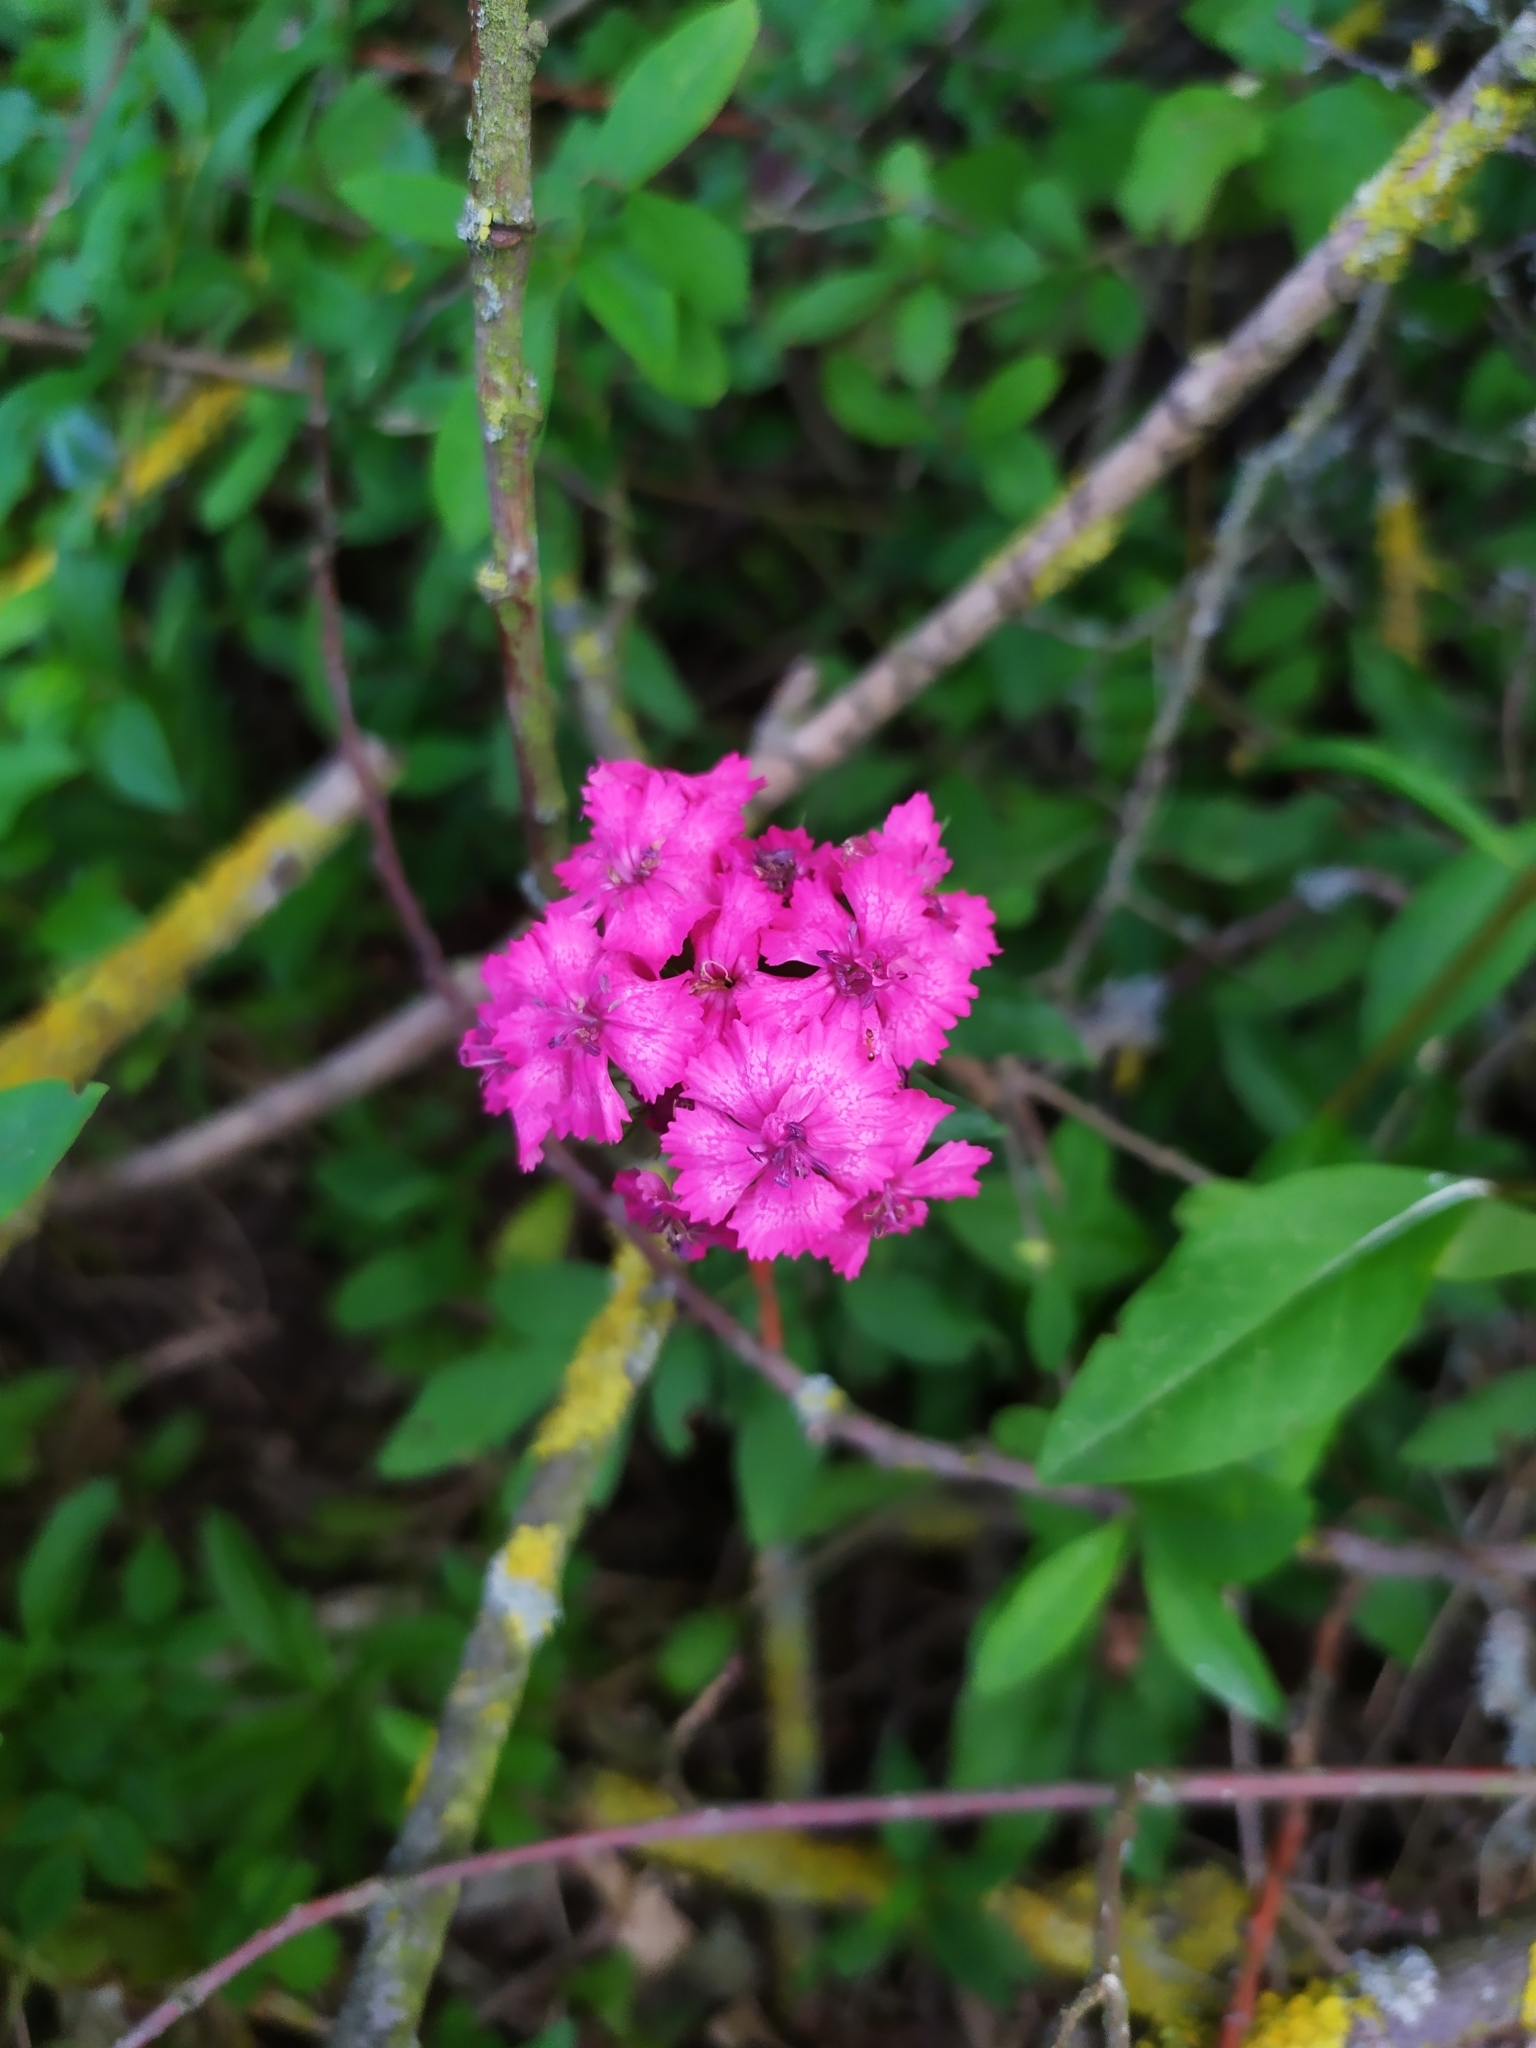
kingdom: Plantae
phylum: Tracheophyta
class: Magnoliopsida
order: Caryophyllales
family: Caryophyllaceae
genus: Dianthus
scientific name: Dianthus barbatus
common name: Sweet-william
